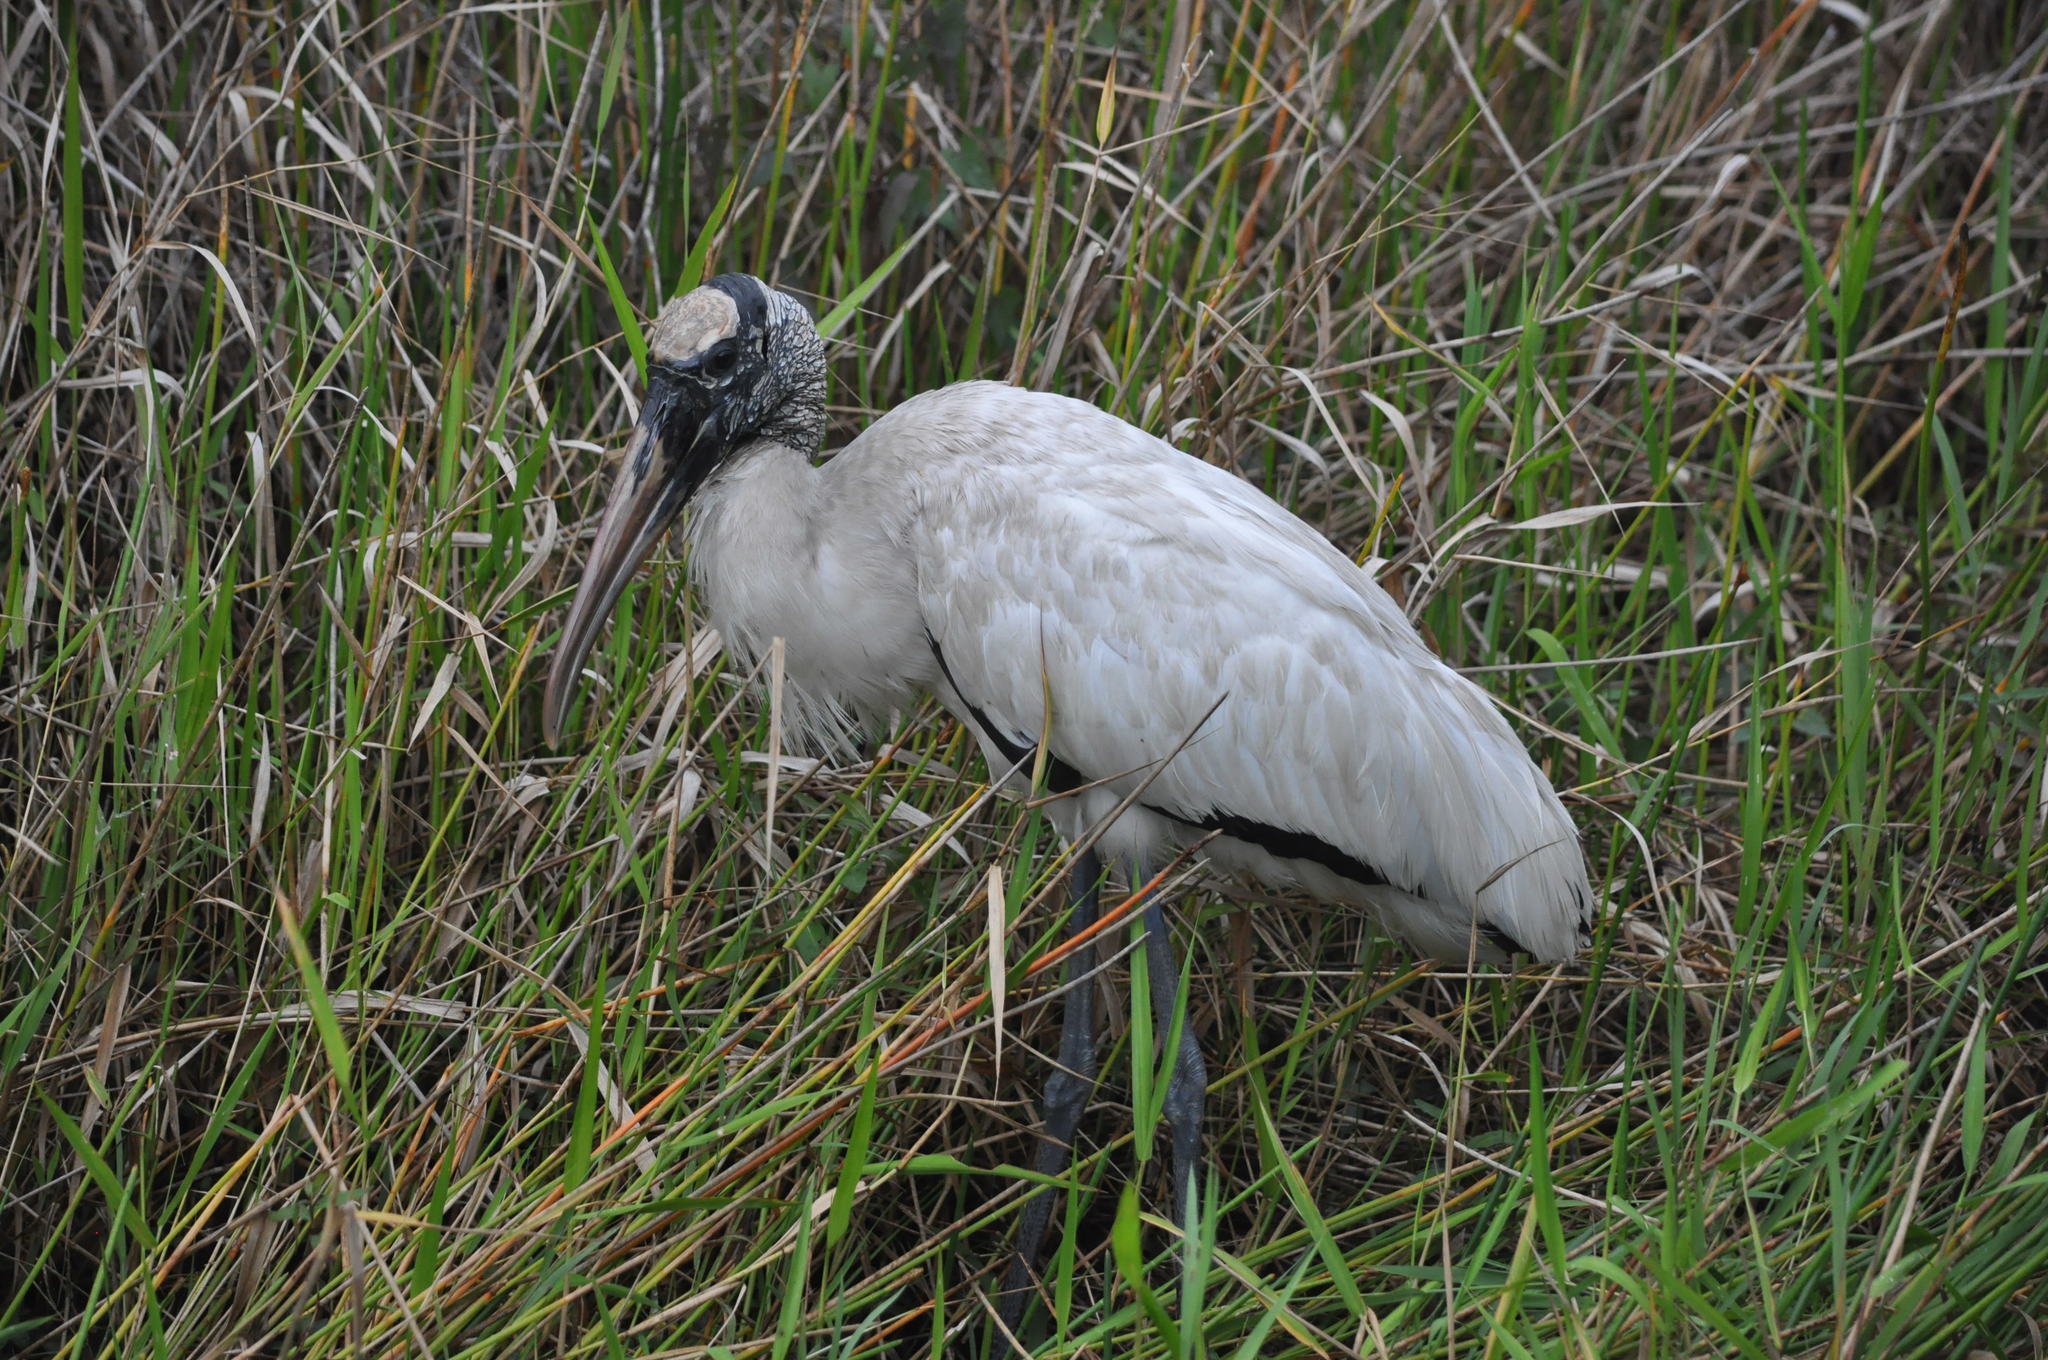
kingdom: Animalia
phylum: Chordata
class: Aves
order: Ciconiiformes
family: Ciconiidae
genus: Mycteria
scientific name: Mycteria americana
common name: Wood stork
